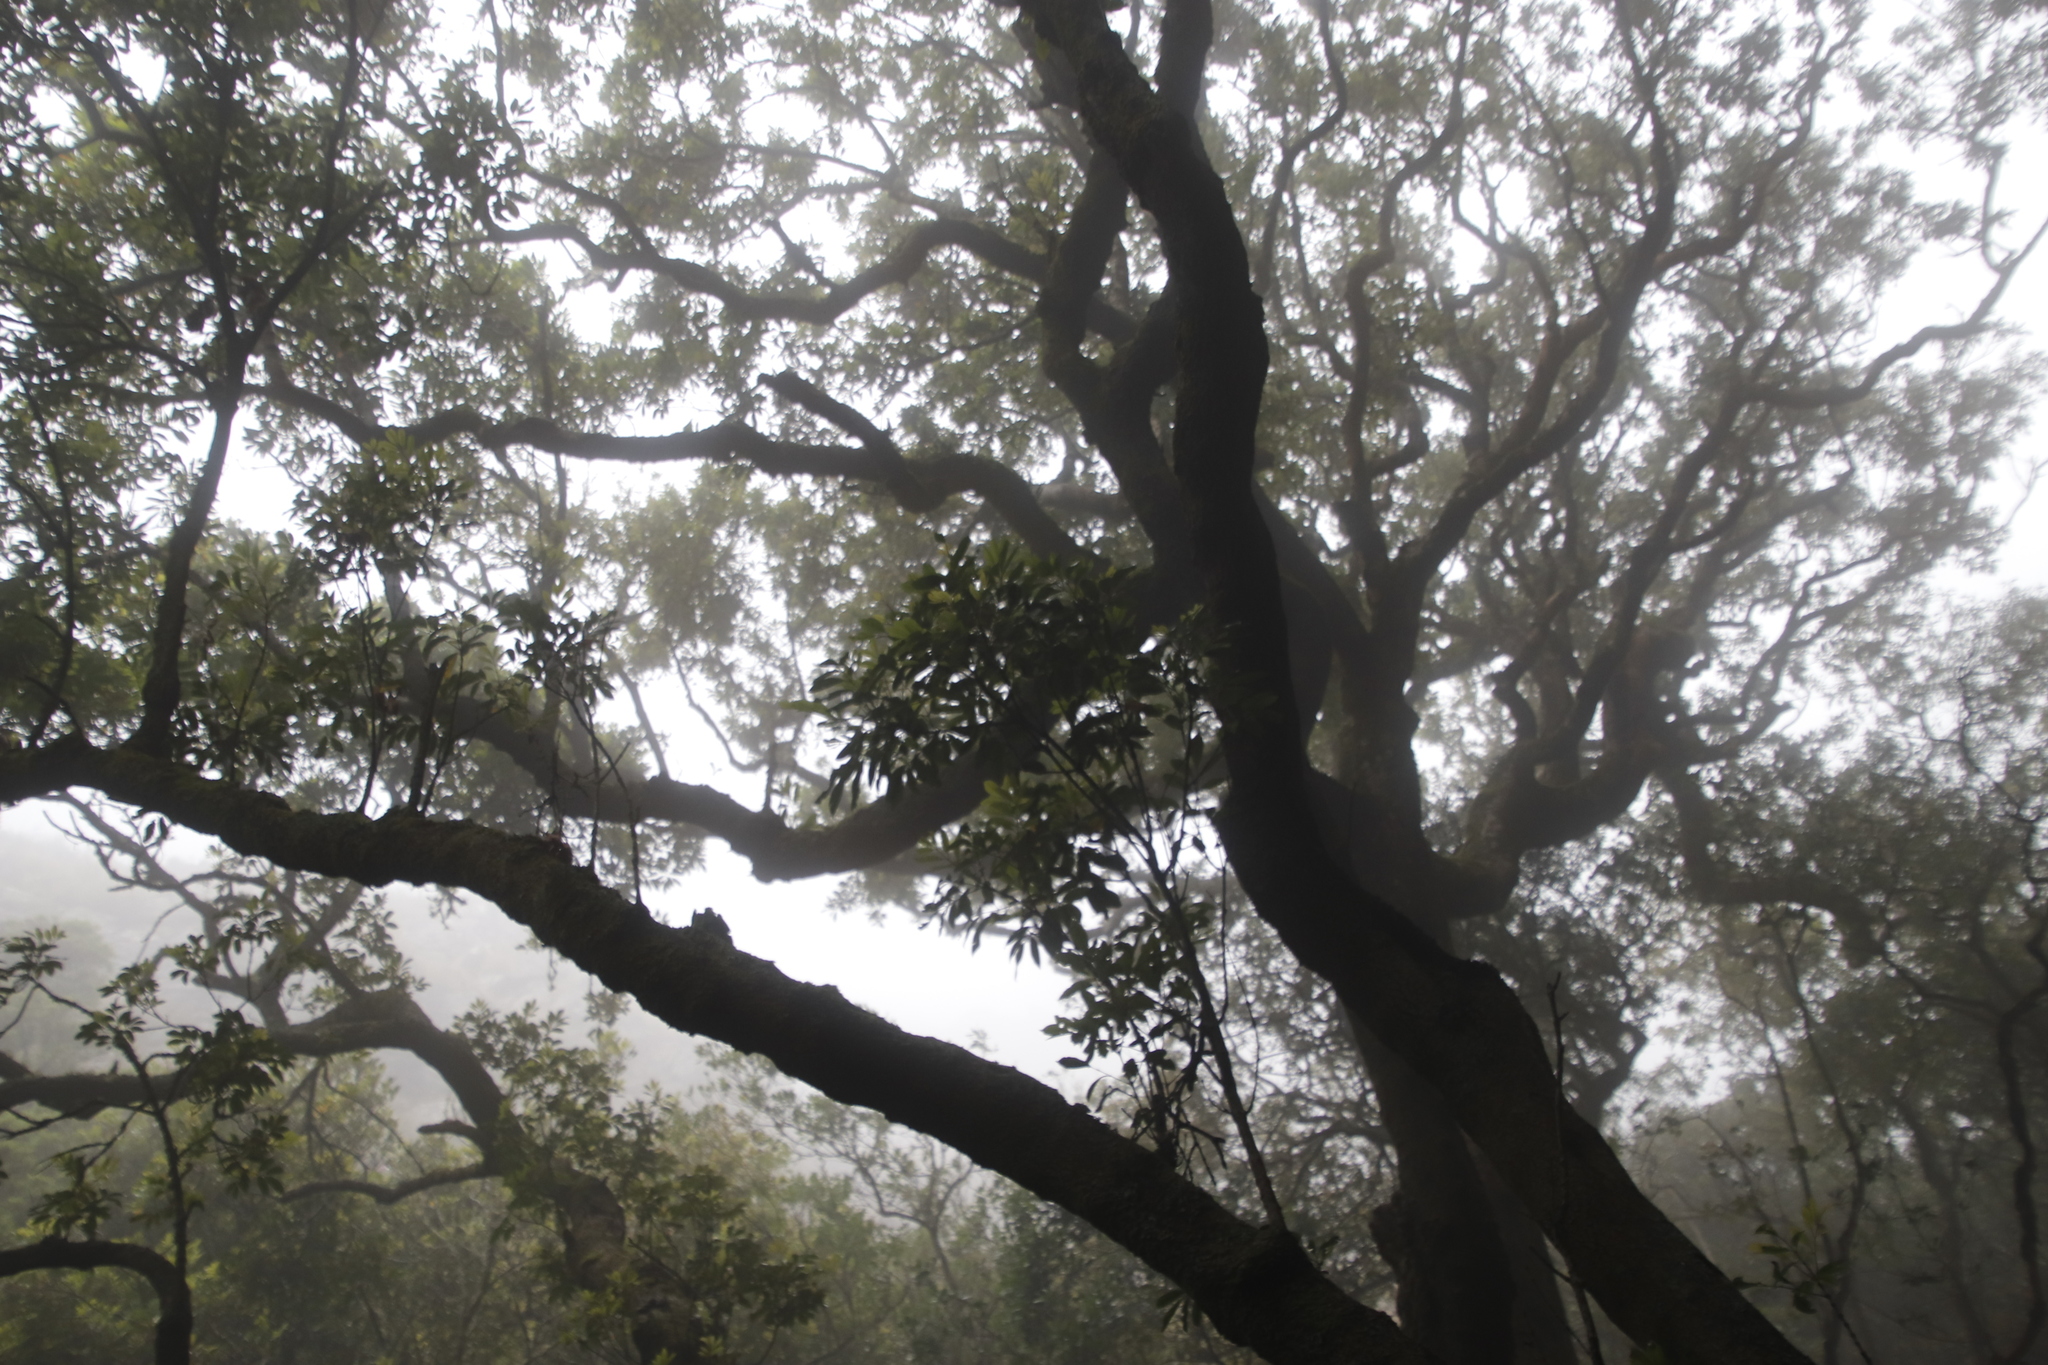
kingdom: Plantae
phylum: Tracheophyta
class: Magnoliopsida
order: Oxalidales
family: Cunoniaceae
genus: Cunonia
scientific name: Cunonia capensis
